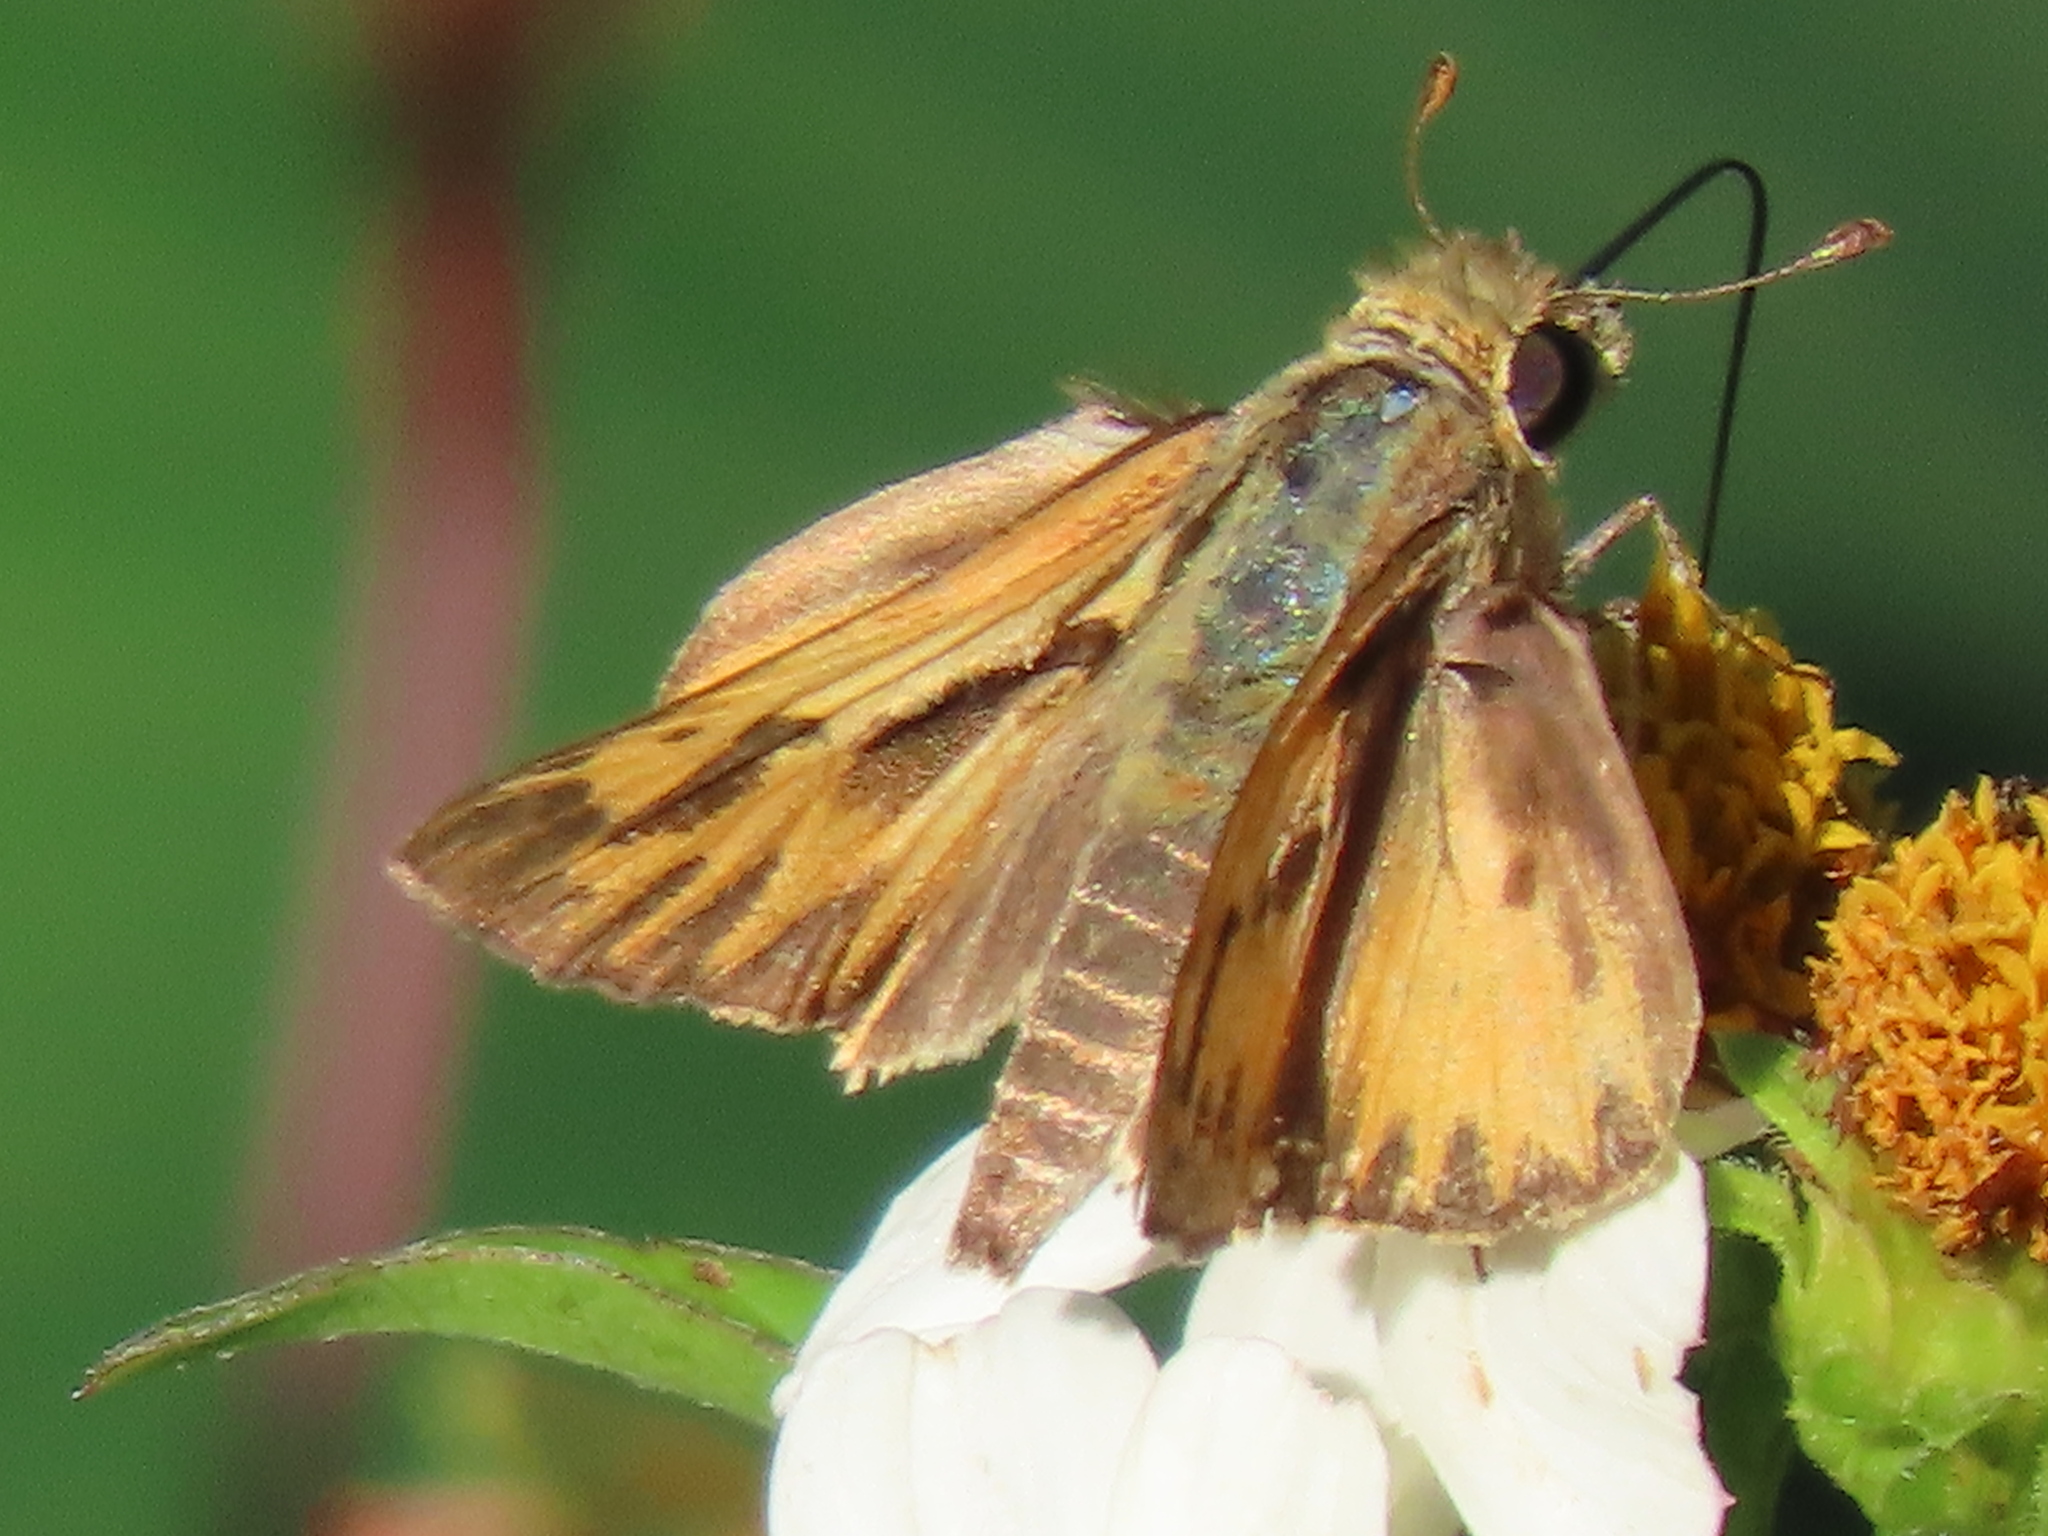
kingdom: Animalia
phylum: Arthropoda
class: Insecta
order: Lepidoptera
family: Hesperiidae
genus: Hylephila
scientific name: Hylephila phyleus
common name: Fiery skipper
